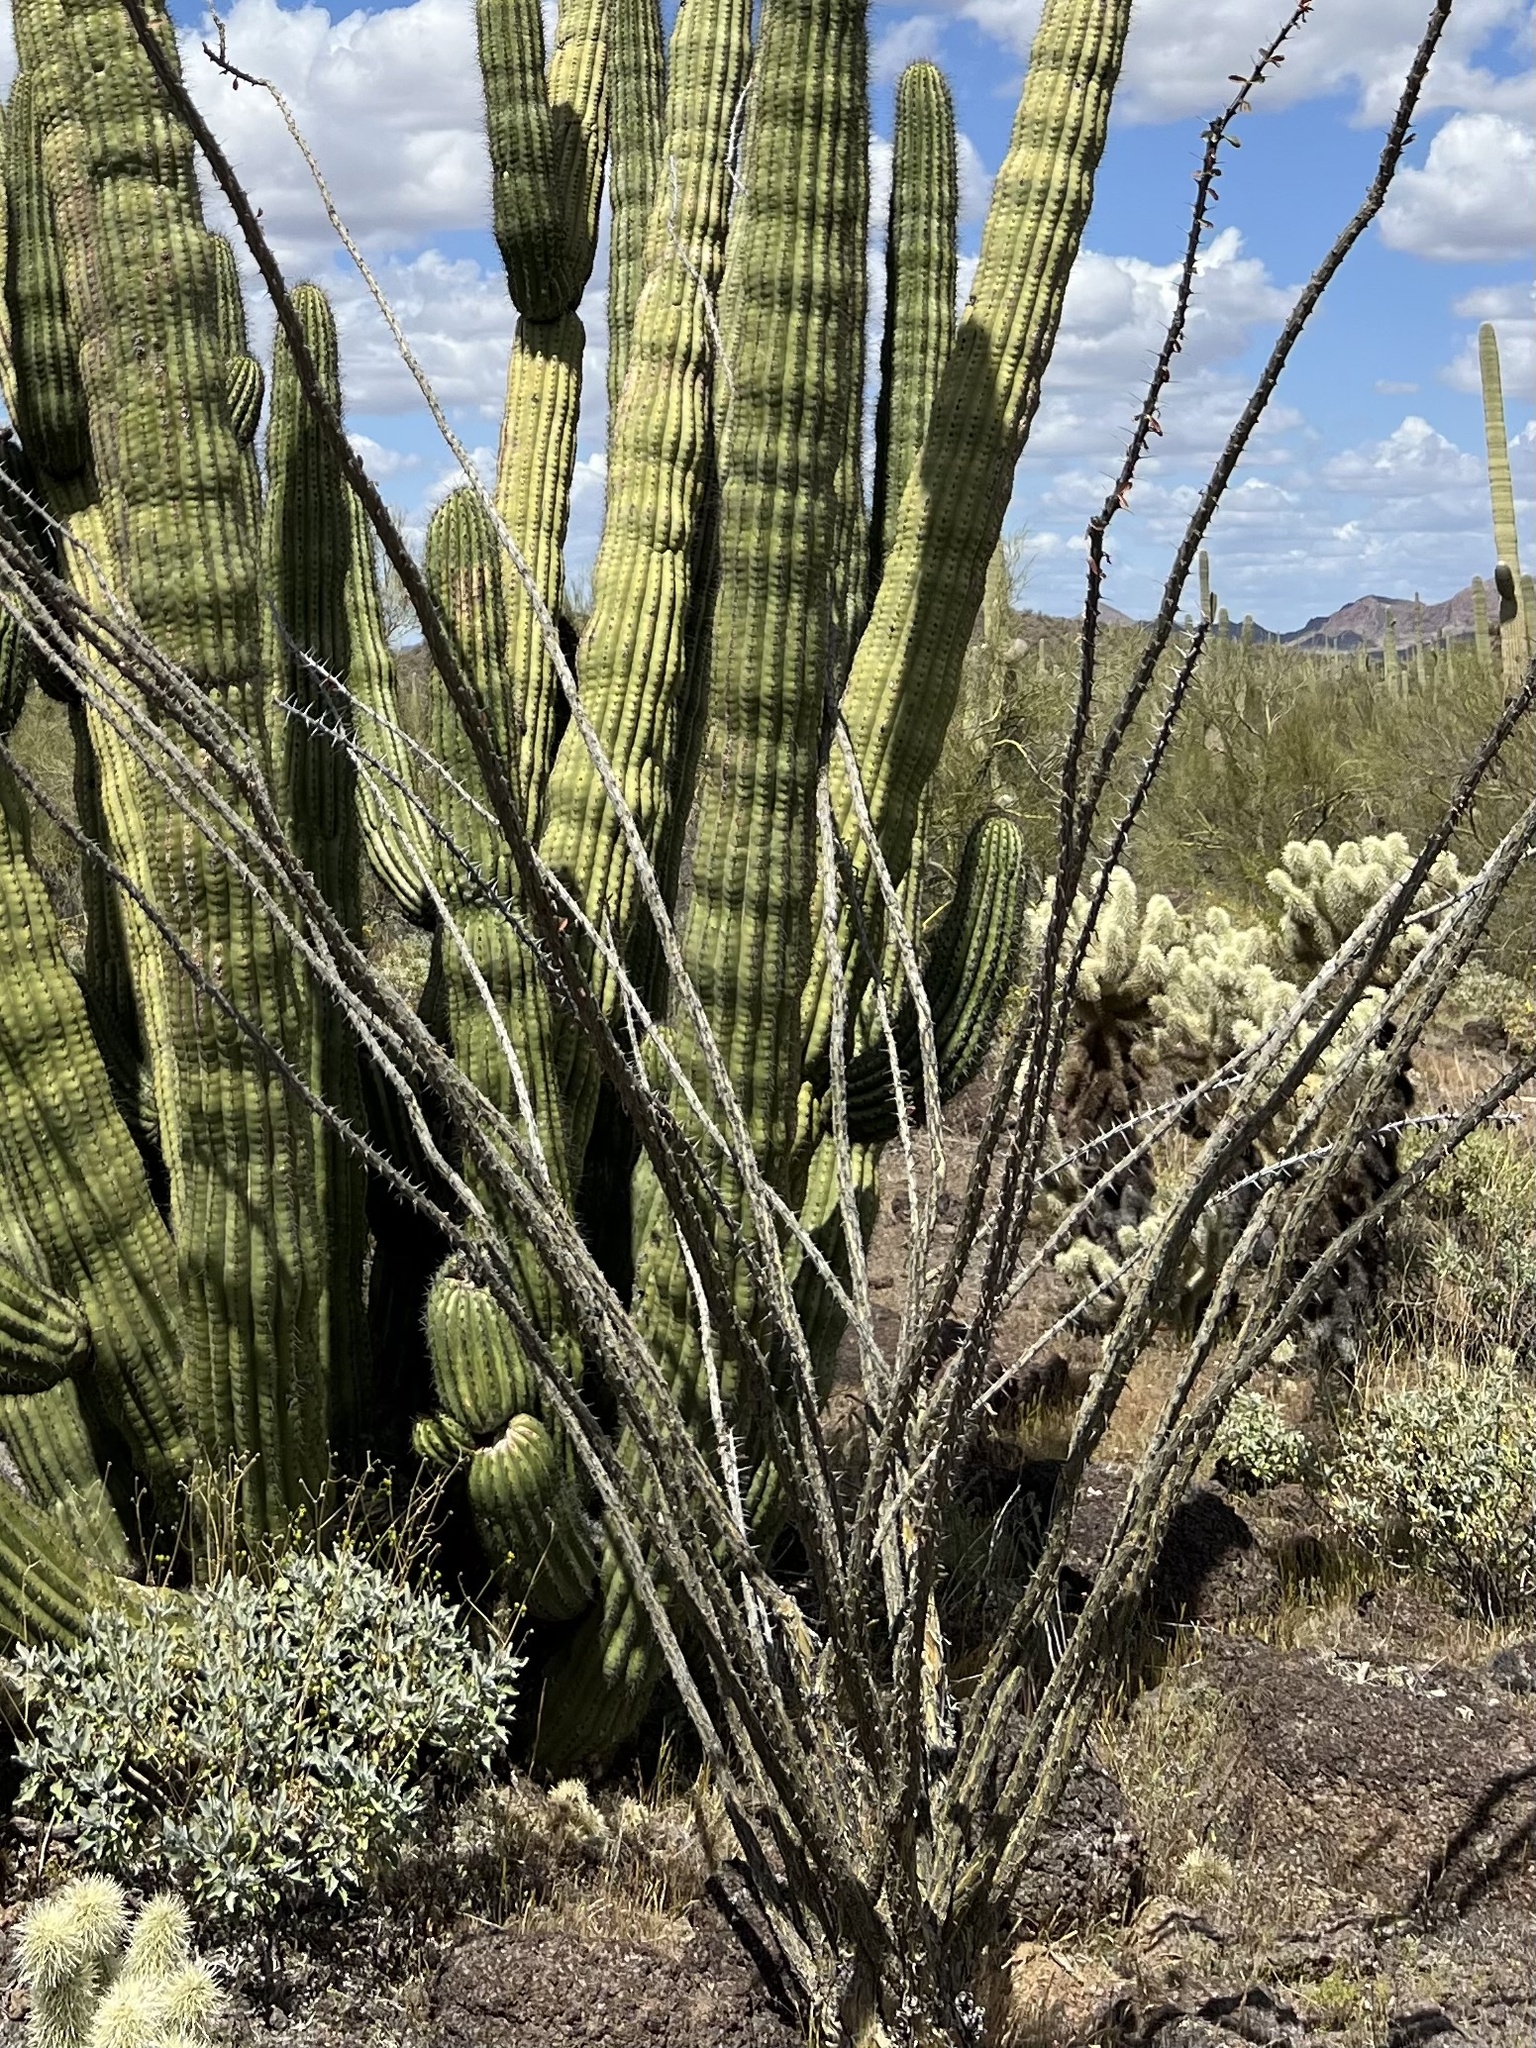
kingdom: Plantae
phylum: Tracheophyta
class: Magnoliopsida
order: Ericales
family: Fouquieriaceae
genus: Fouquieria
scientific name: Fouquieria splendens
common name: Vine-cactus
